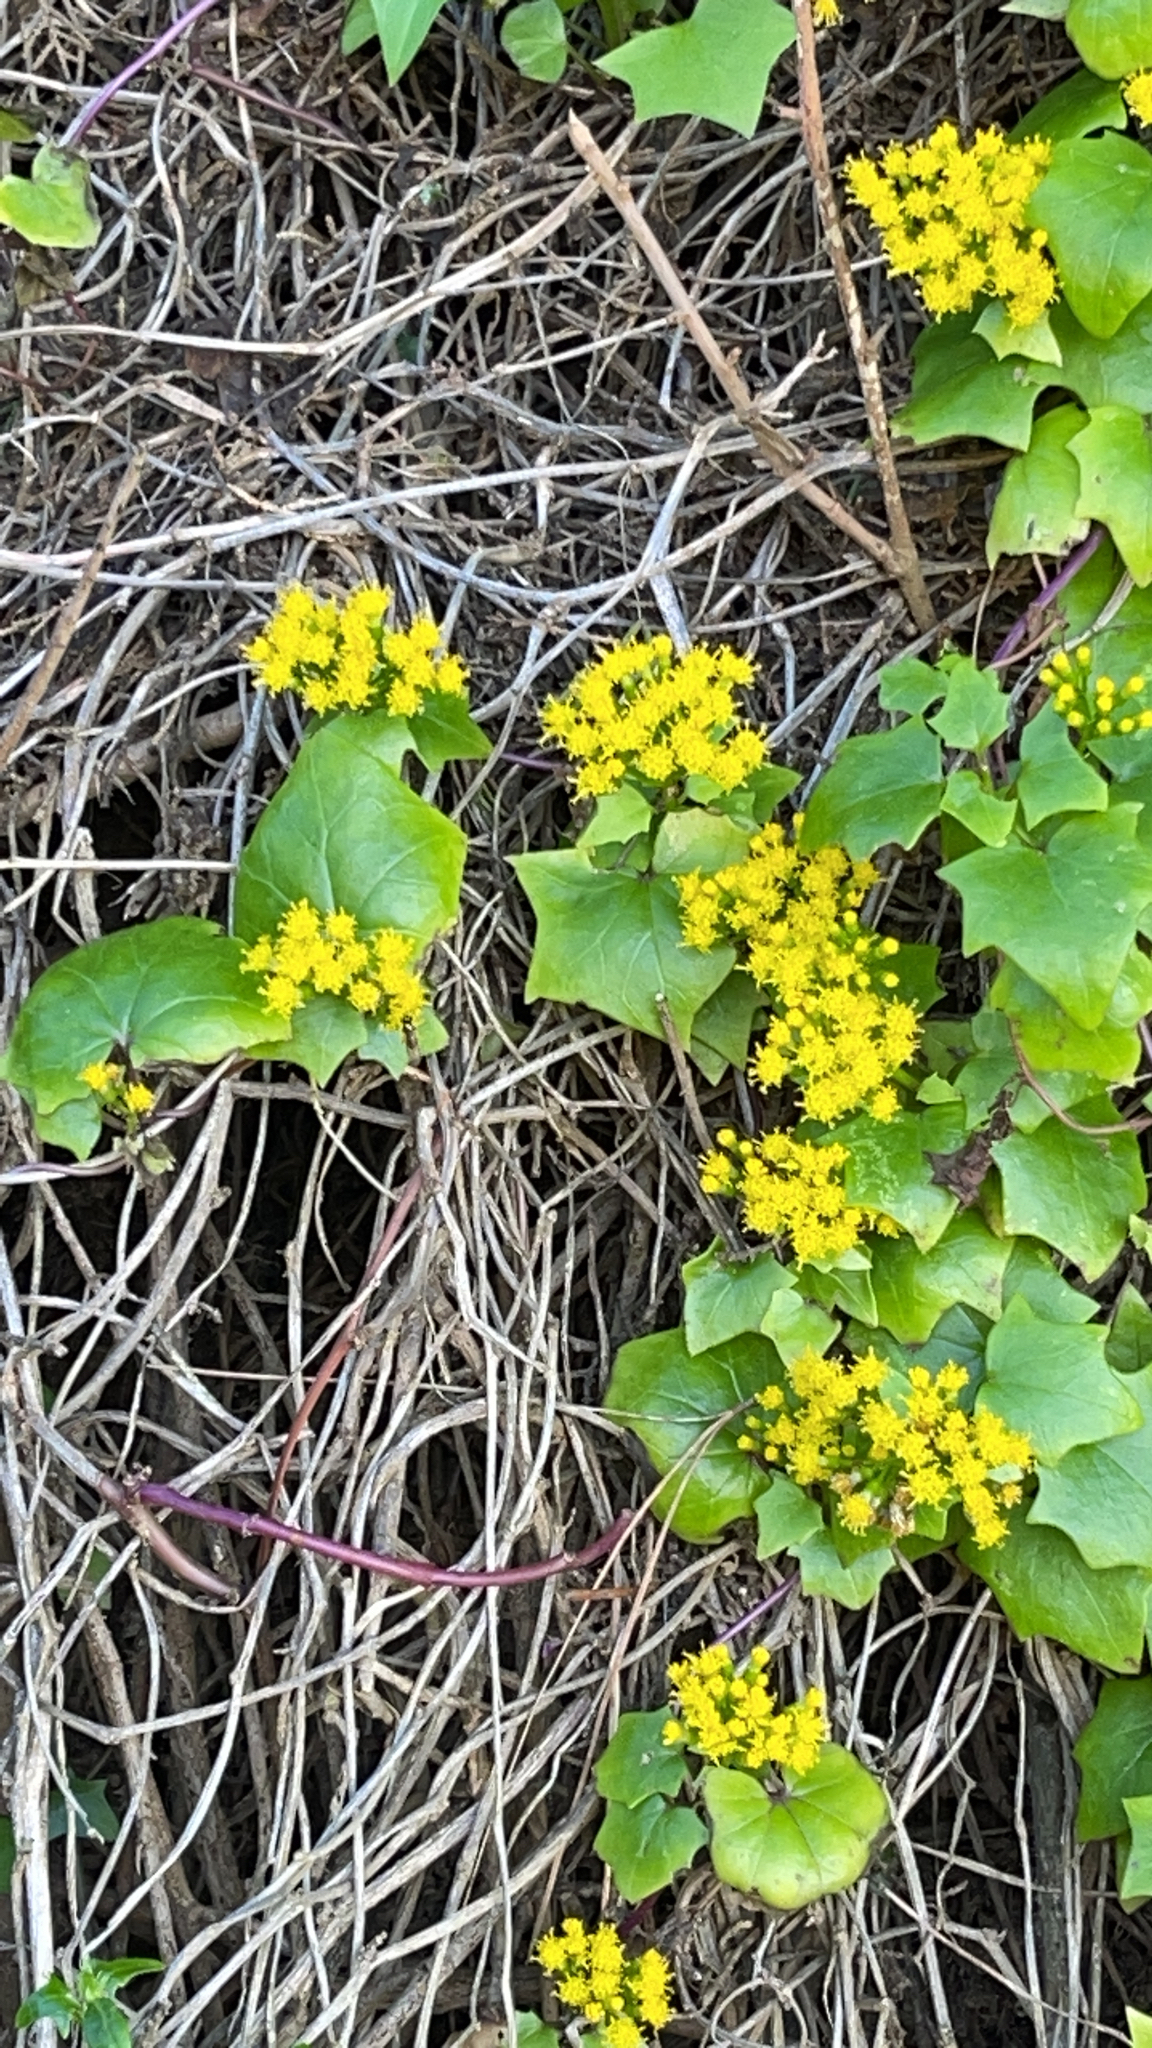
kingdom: Plantae
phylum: Tracheophyta
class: Magnoliopsida
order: Asterales
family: Asteraceae
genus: Delairea
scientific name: Delairea odorata
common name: Cape-ivy
